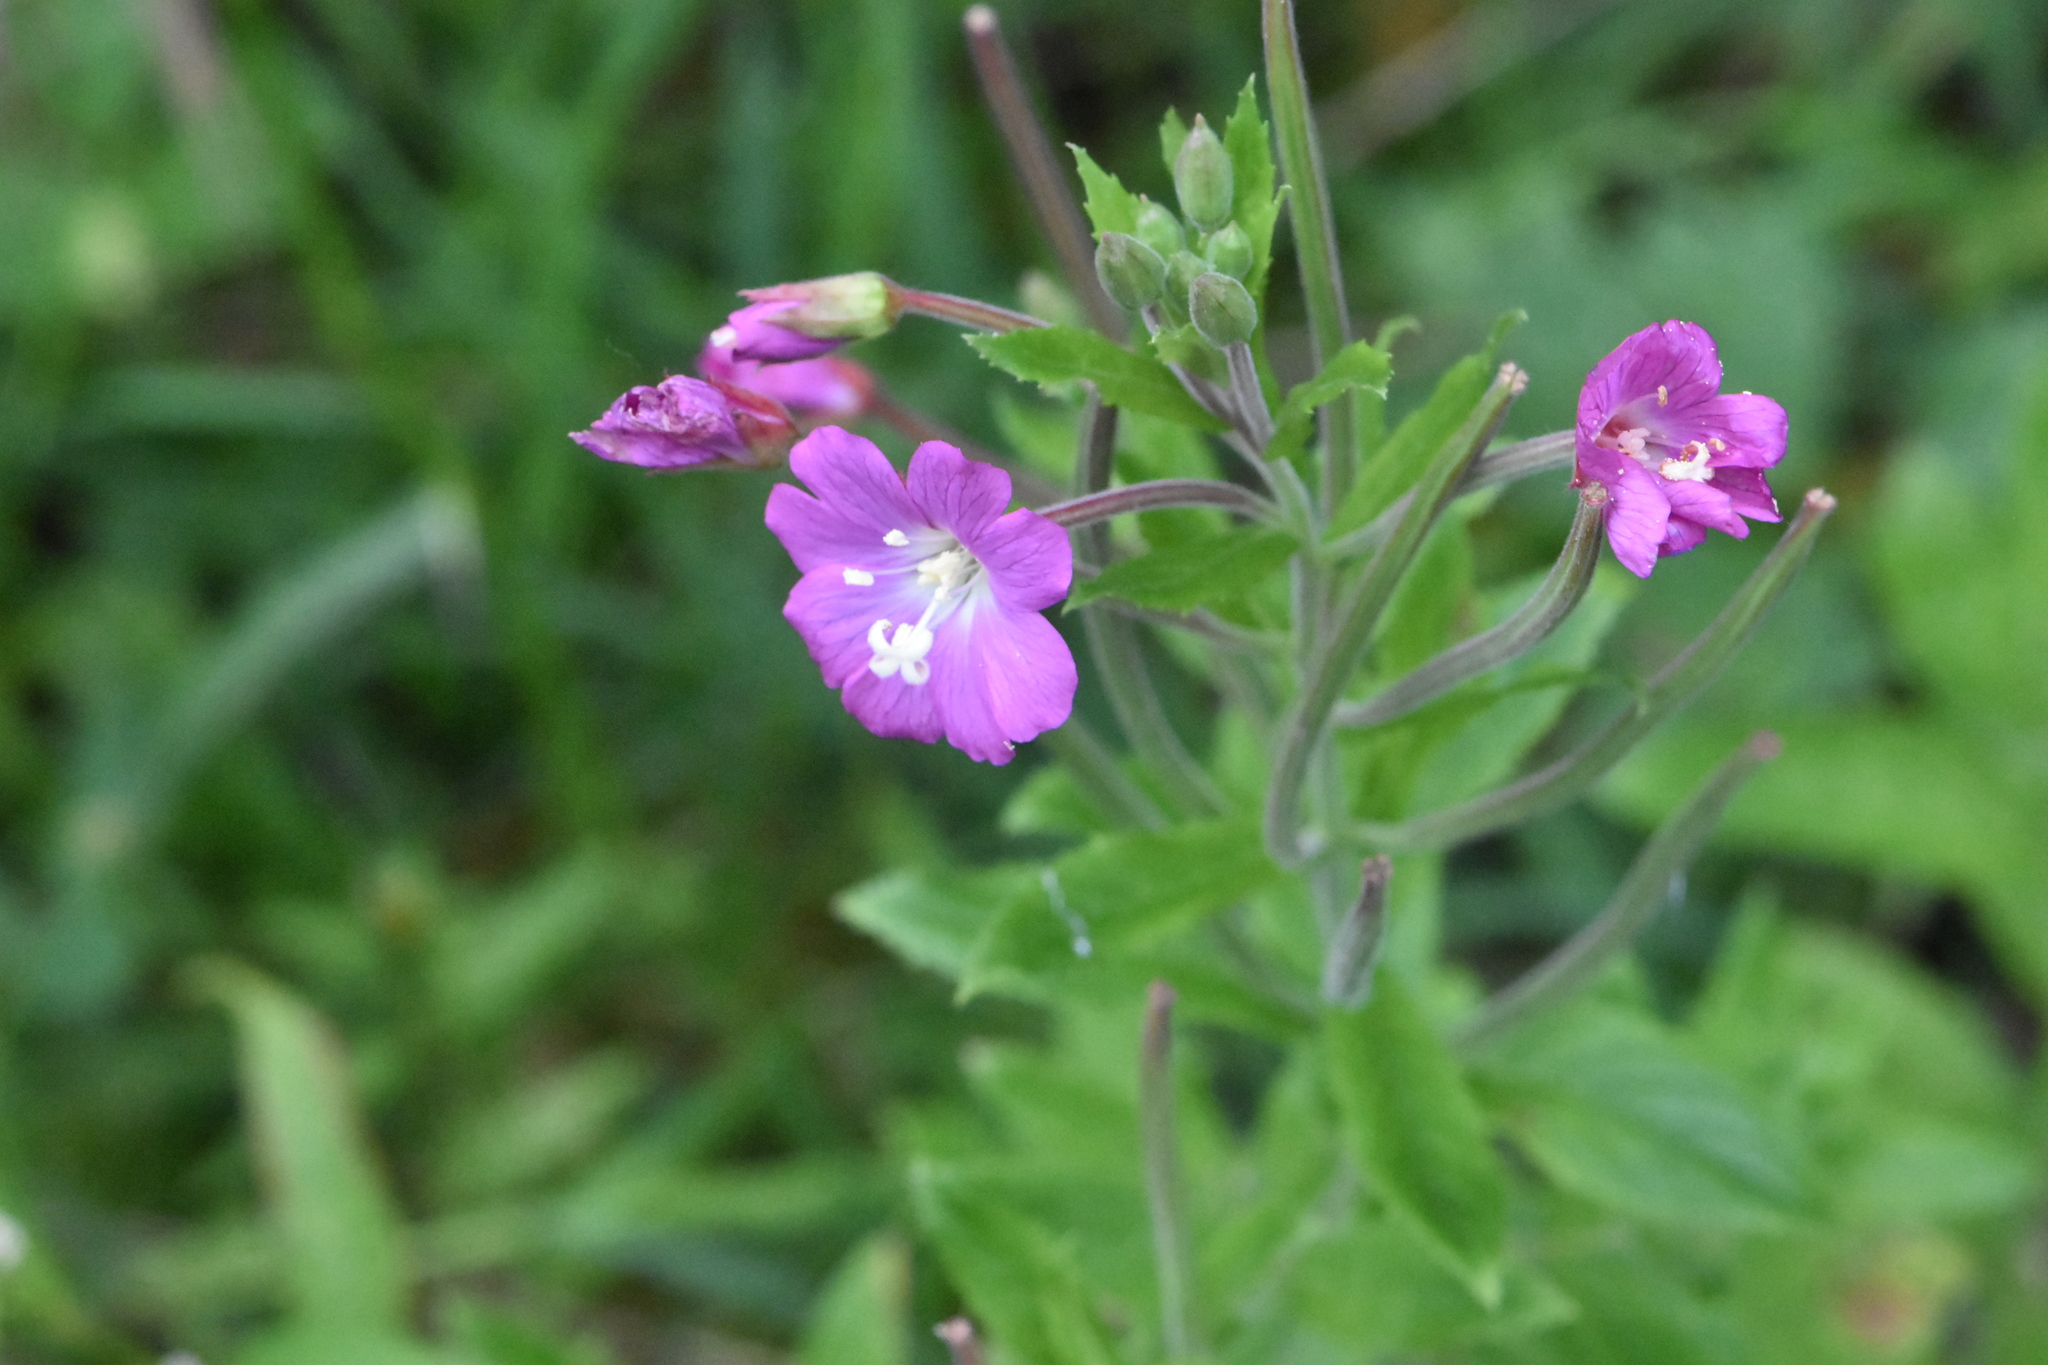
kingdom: Plantae
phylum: Tracheophyta
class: Magnoliopsida
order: Myrtales
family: Onagraceae
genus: Epilobium
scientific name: Epilobium hirsutum
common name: Great willowherb
